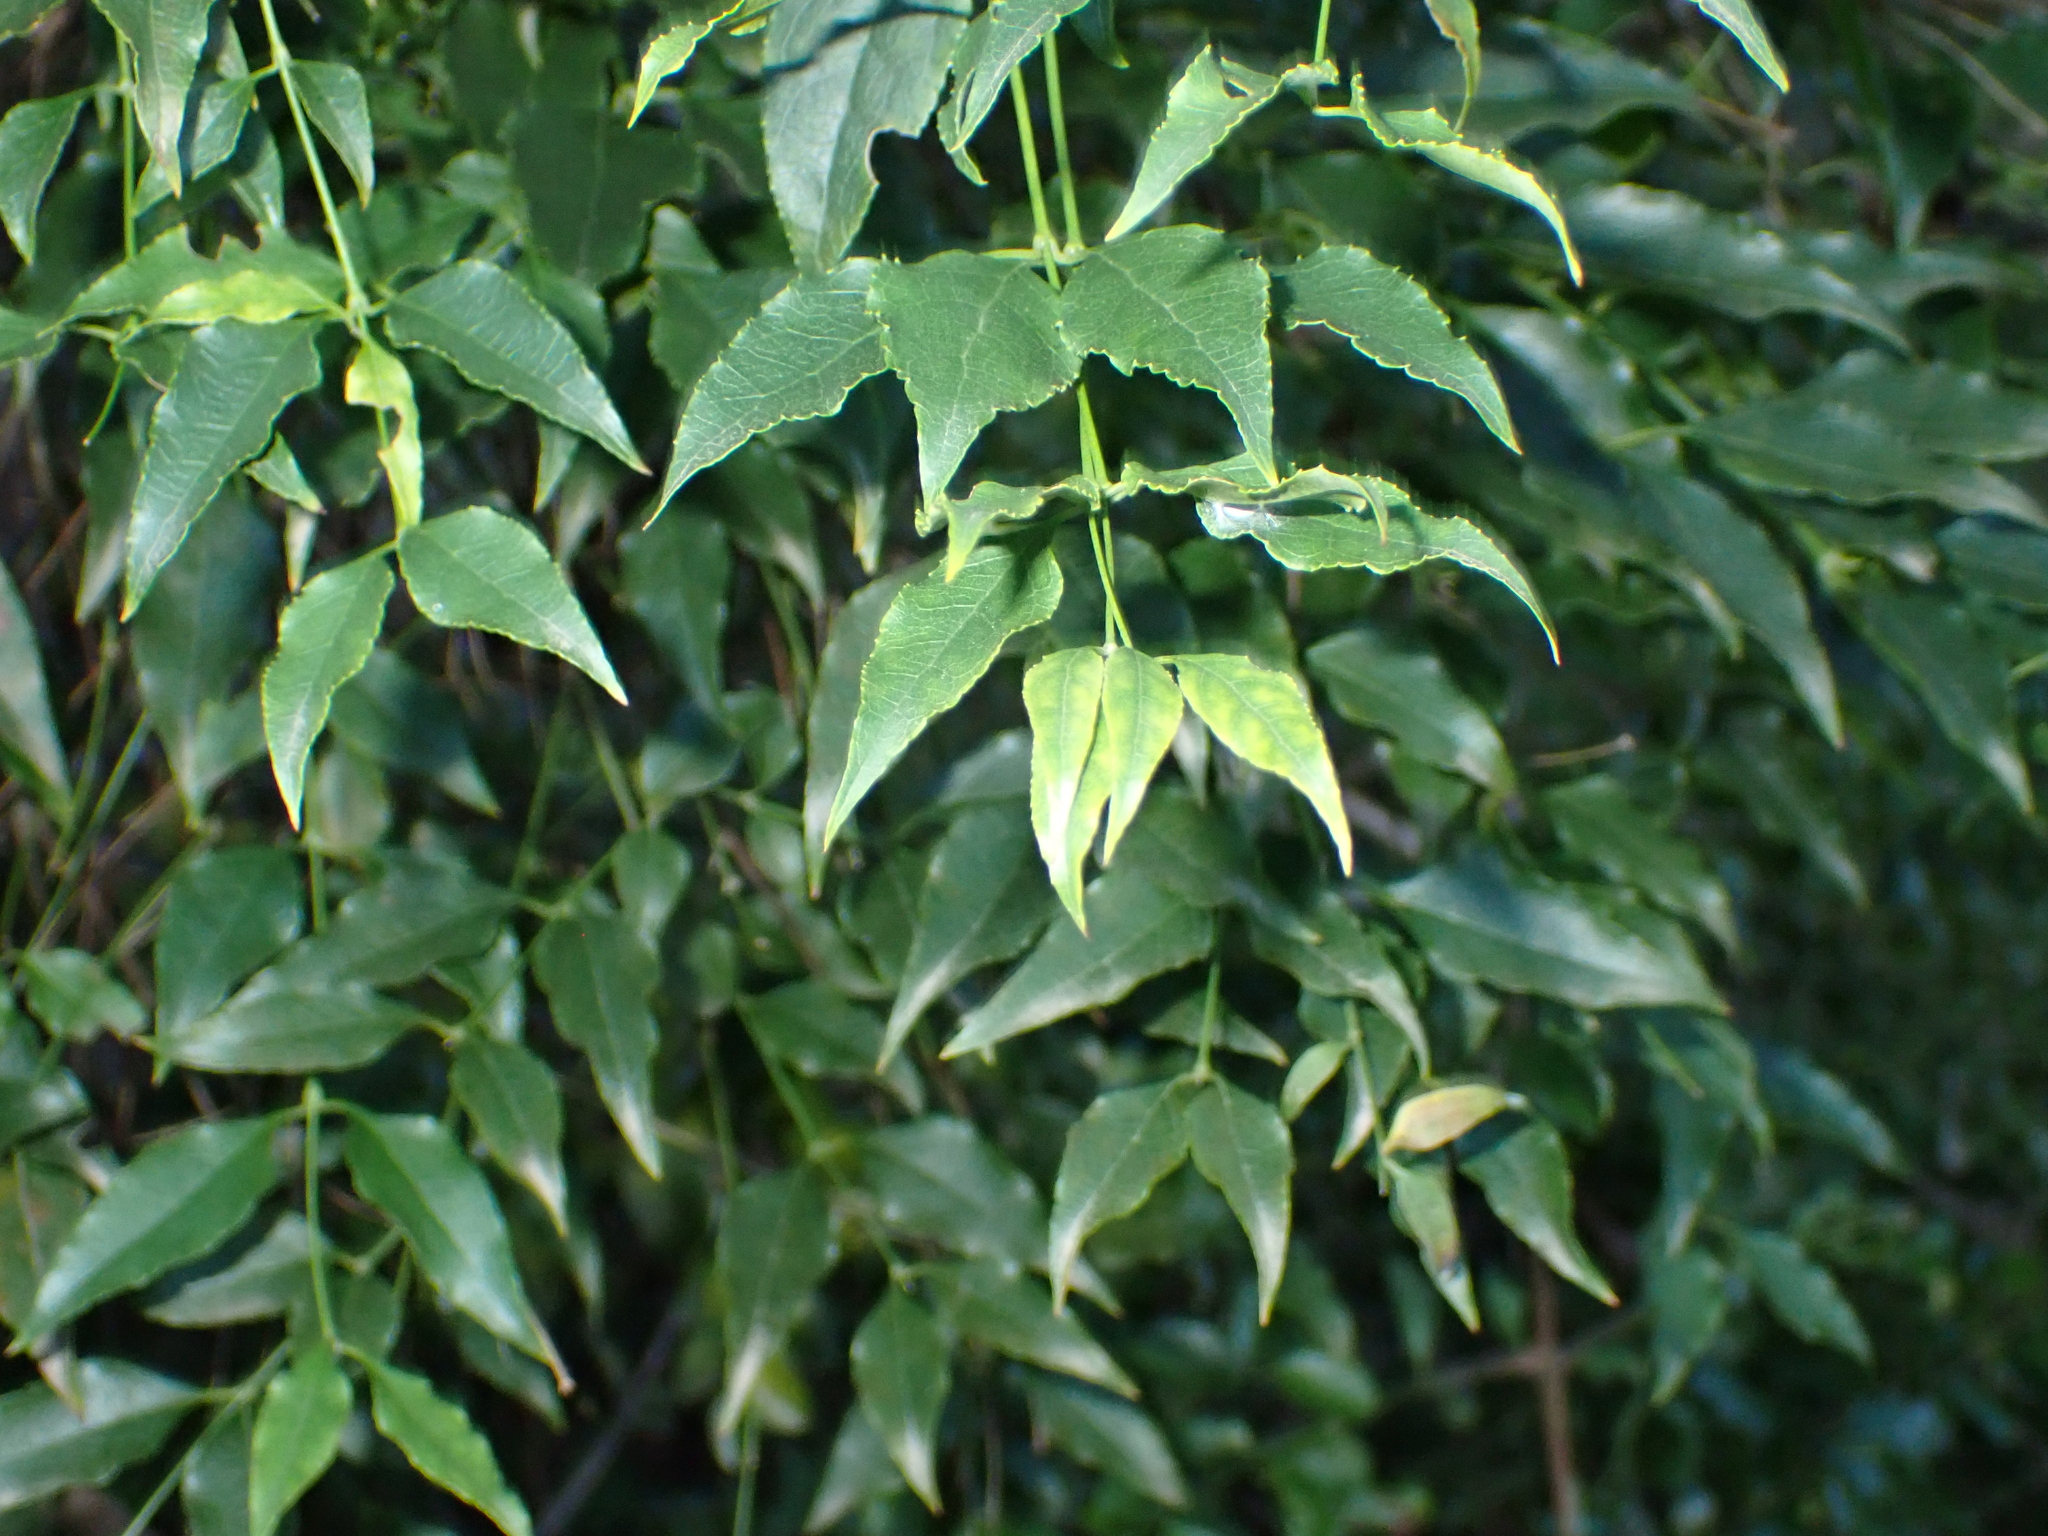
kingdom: Plantae
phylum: Tracheophyta
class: Magnoliopsida
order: Lamiales
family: Stilbaceae
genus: Halleria
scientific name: Halleria lucida
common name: Tree fuschia
